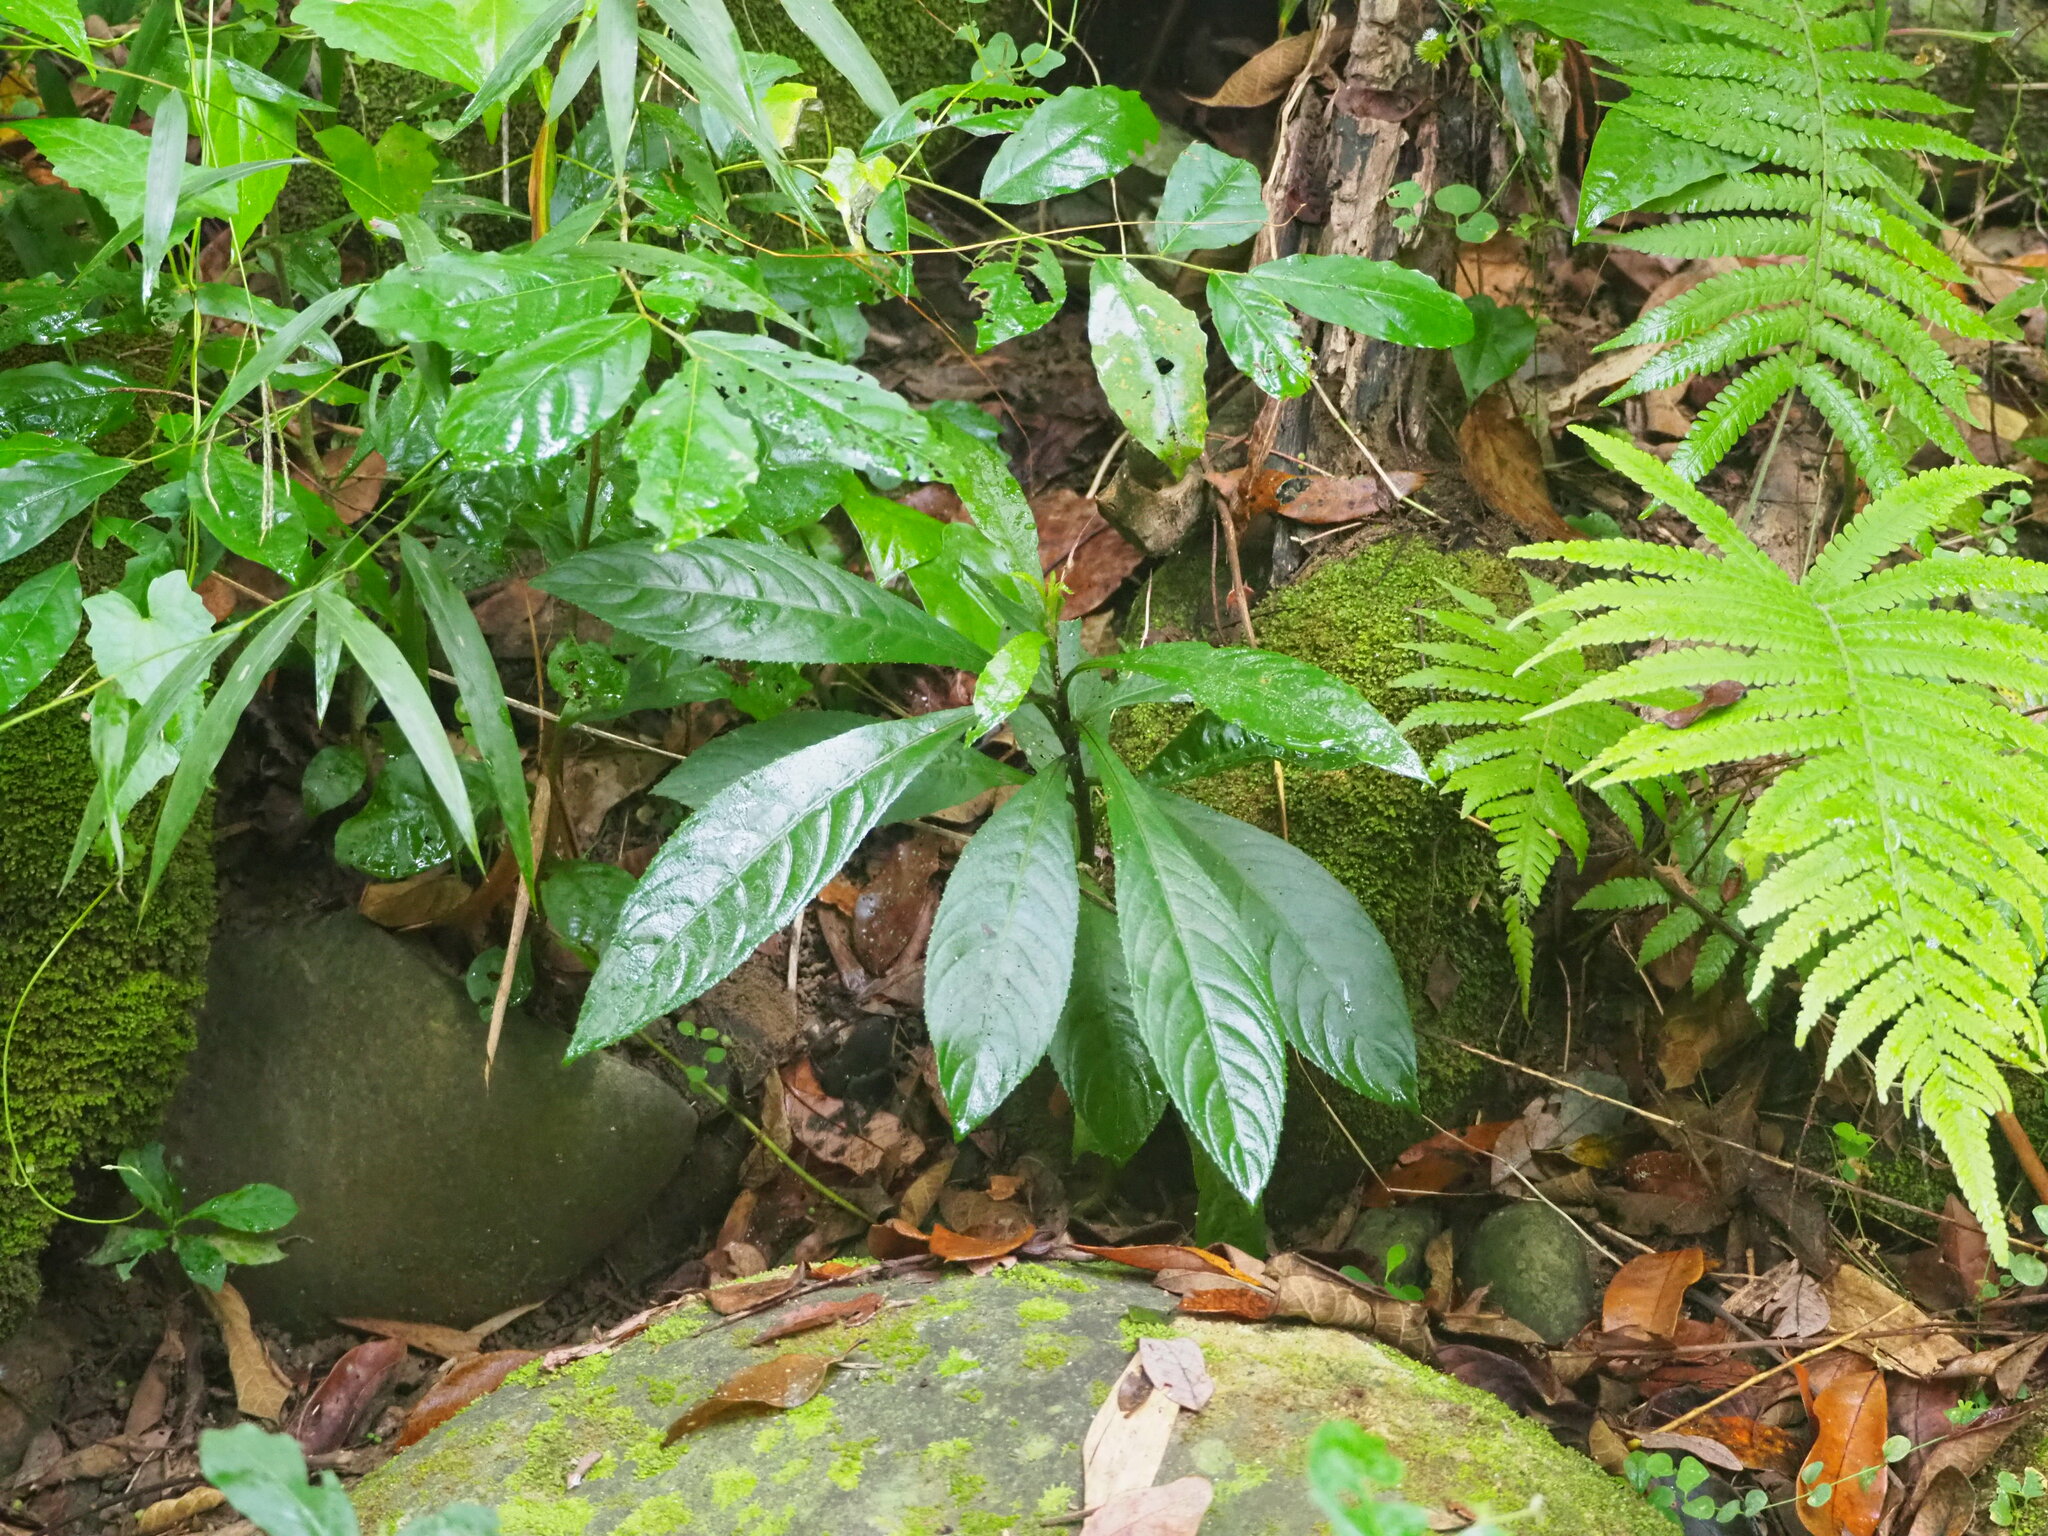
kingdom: Plantae
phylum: Tracheophyta
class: Magnoliopsida
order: Asterales
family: Asteraceae
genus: Blumea
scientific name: Blumea lanceolaria
